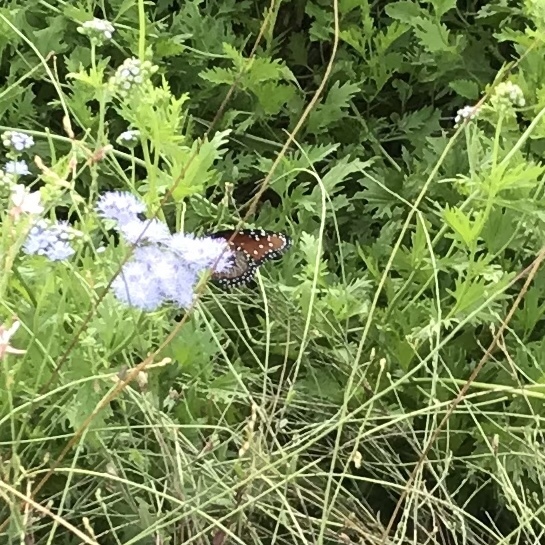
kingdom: Animalia
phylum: Arthropoda
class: Insecta
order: Lepidoptera
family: Nymphalidae
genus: Danaus
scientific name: Danaus gilippus
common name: Queen
